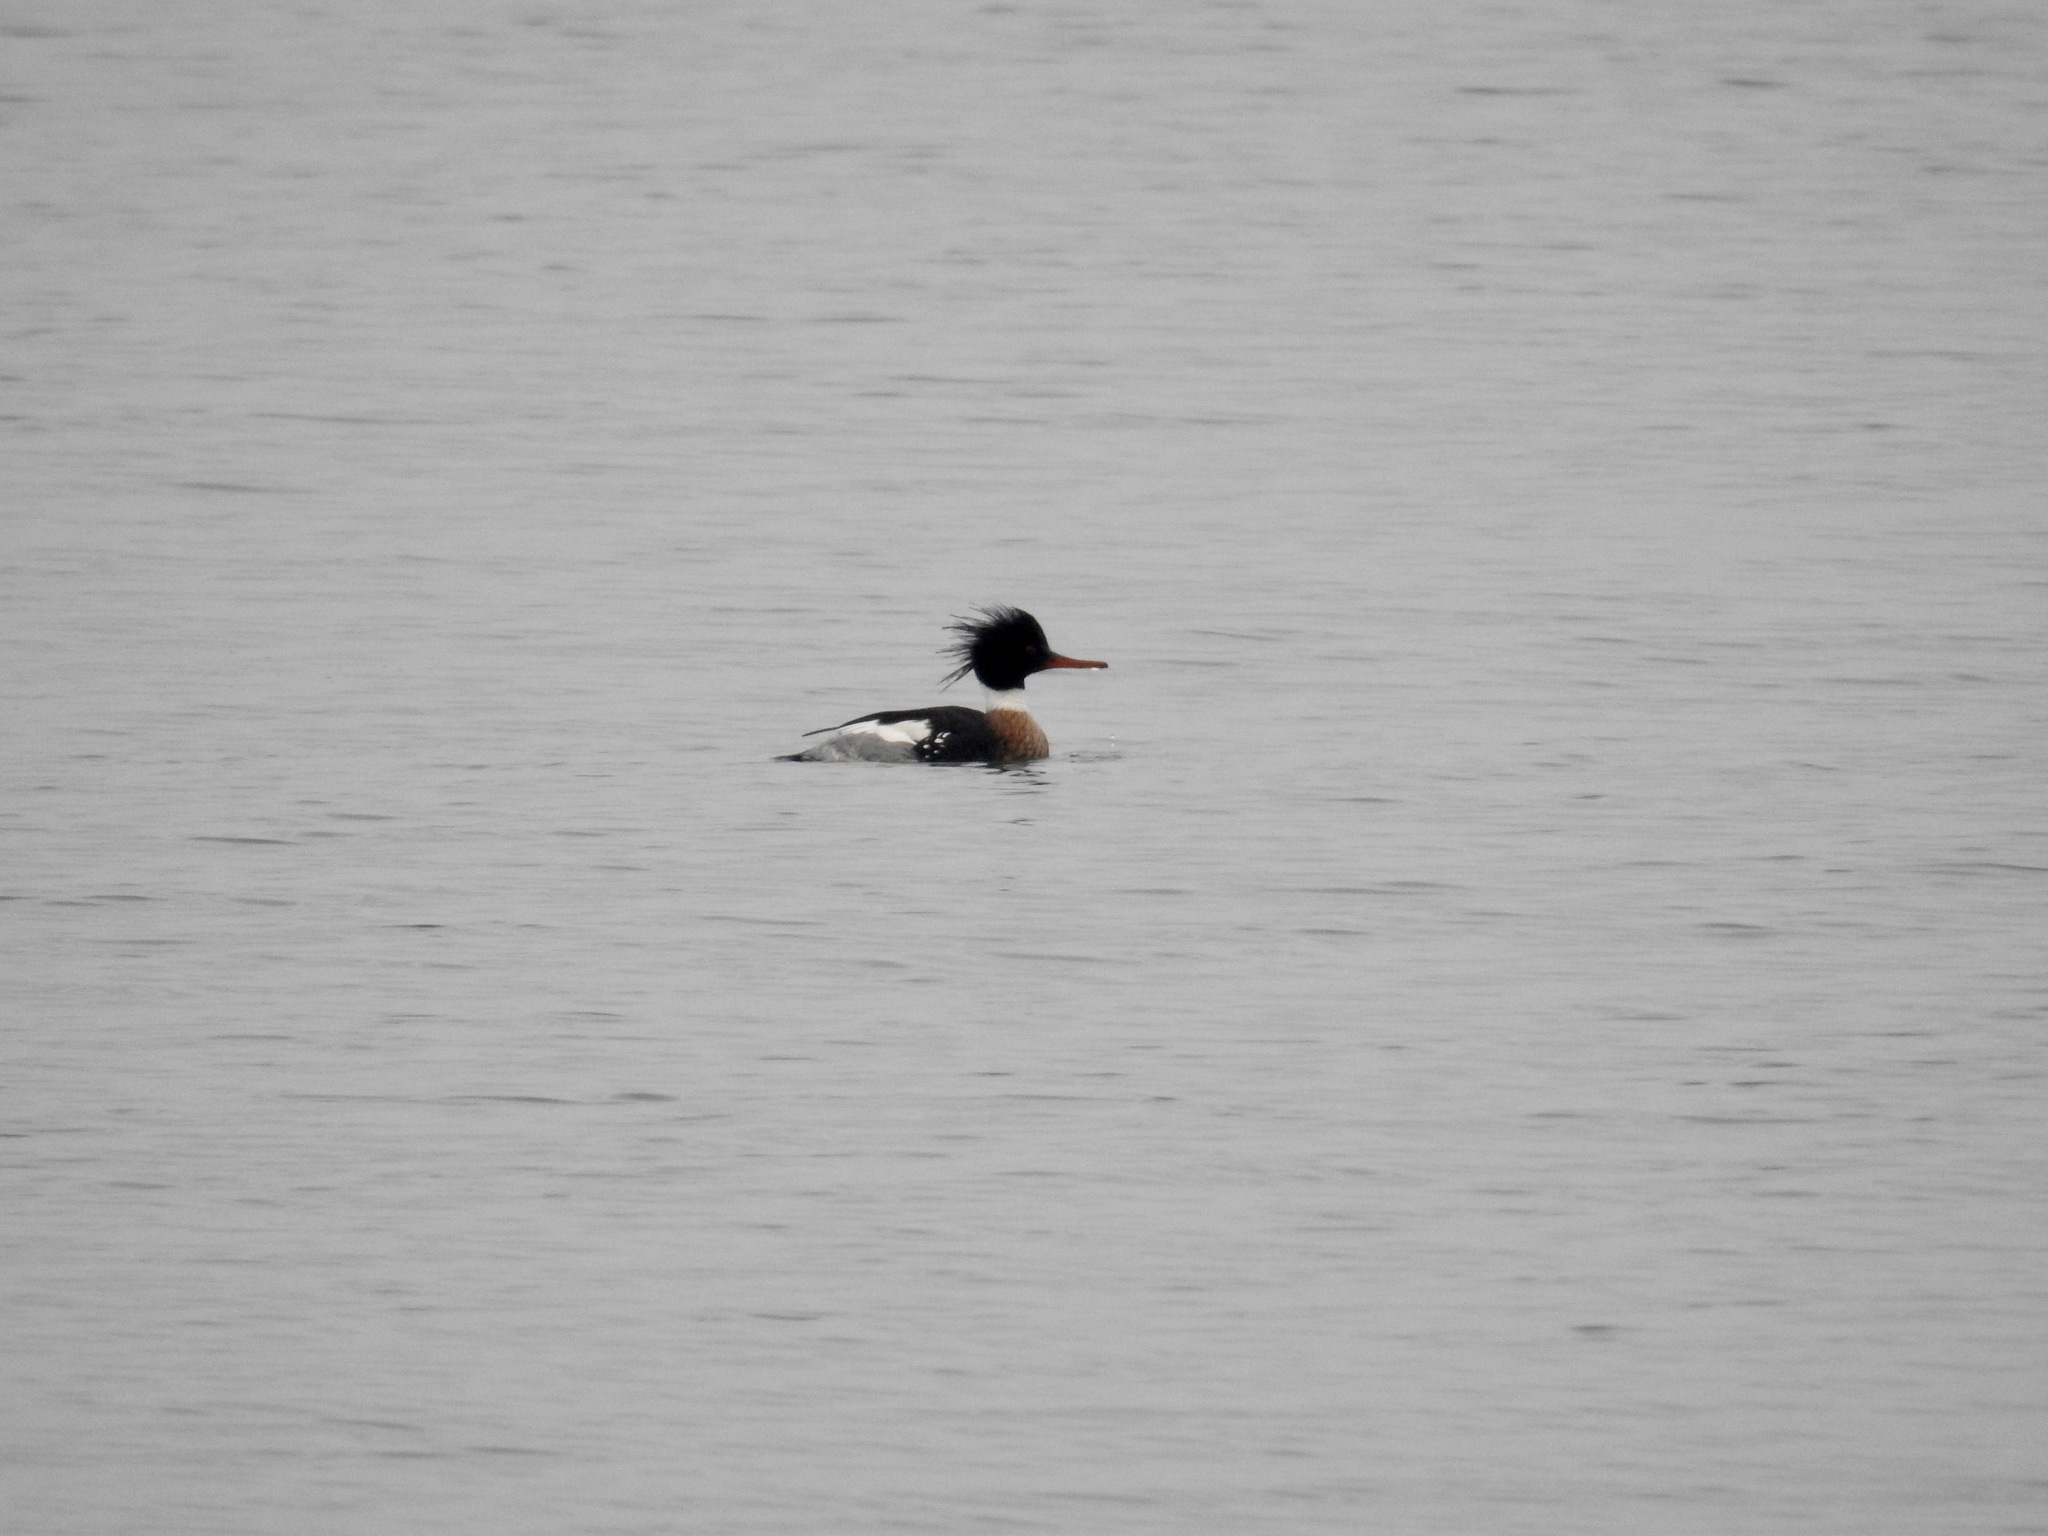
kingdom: Animalia
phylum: Chordata
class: Aves
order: Anseriformes
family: Anatidae
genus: Mergus
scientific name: Mergus serrator
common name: Red-breasted merganser
